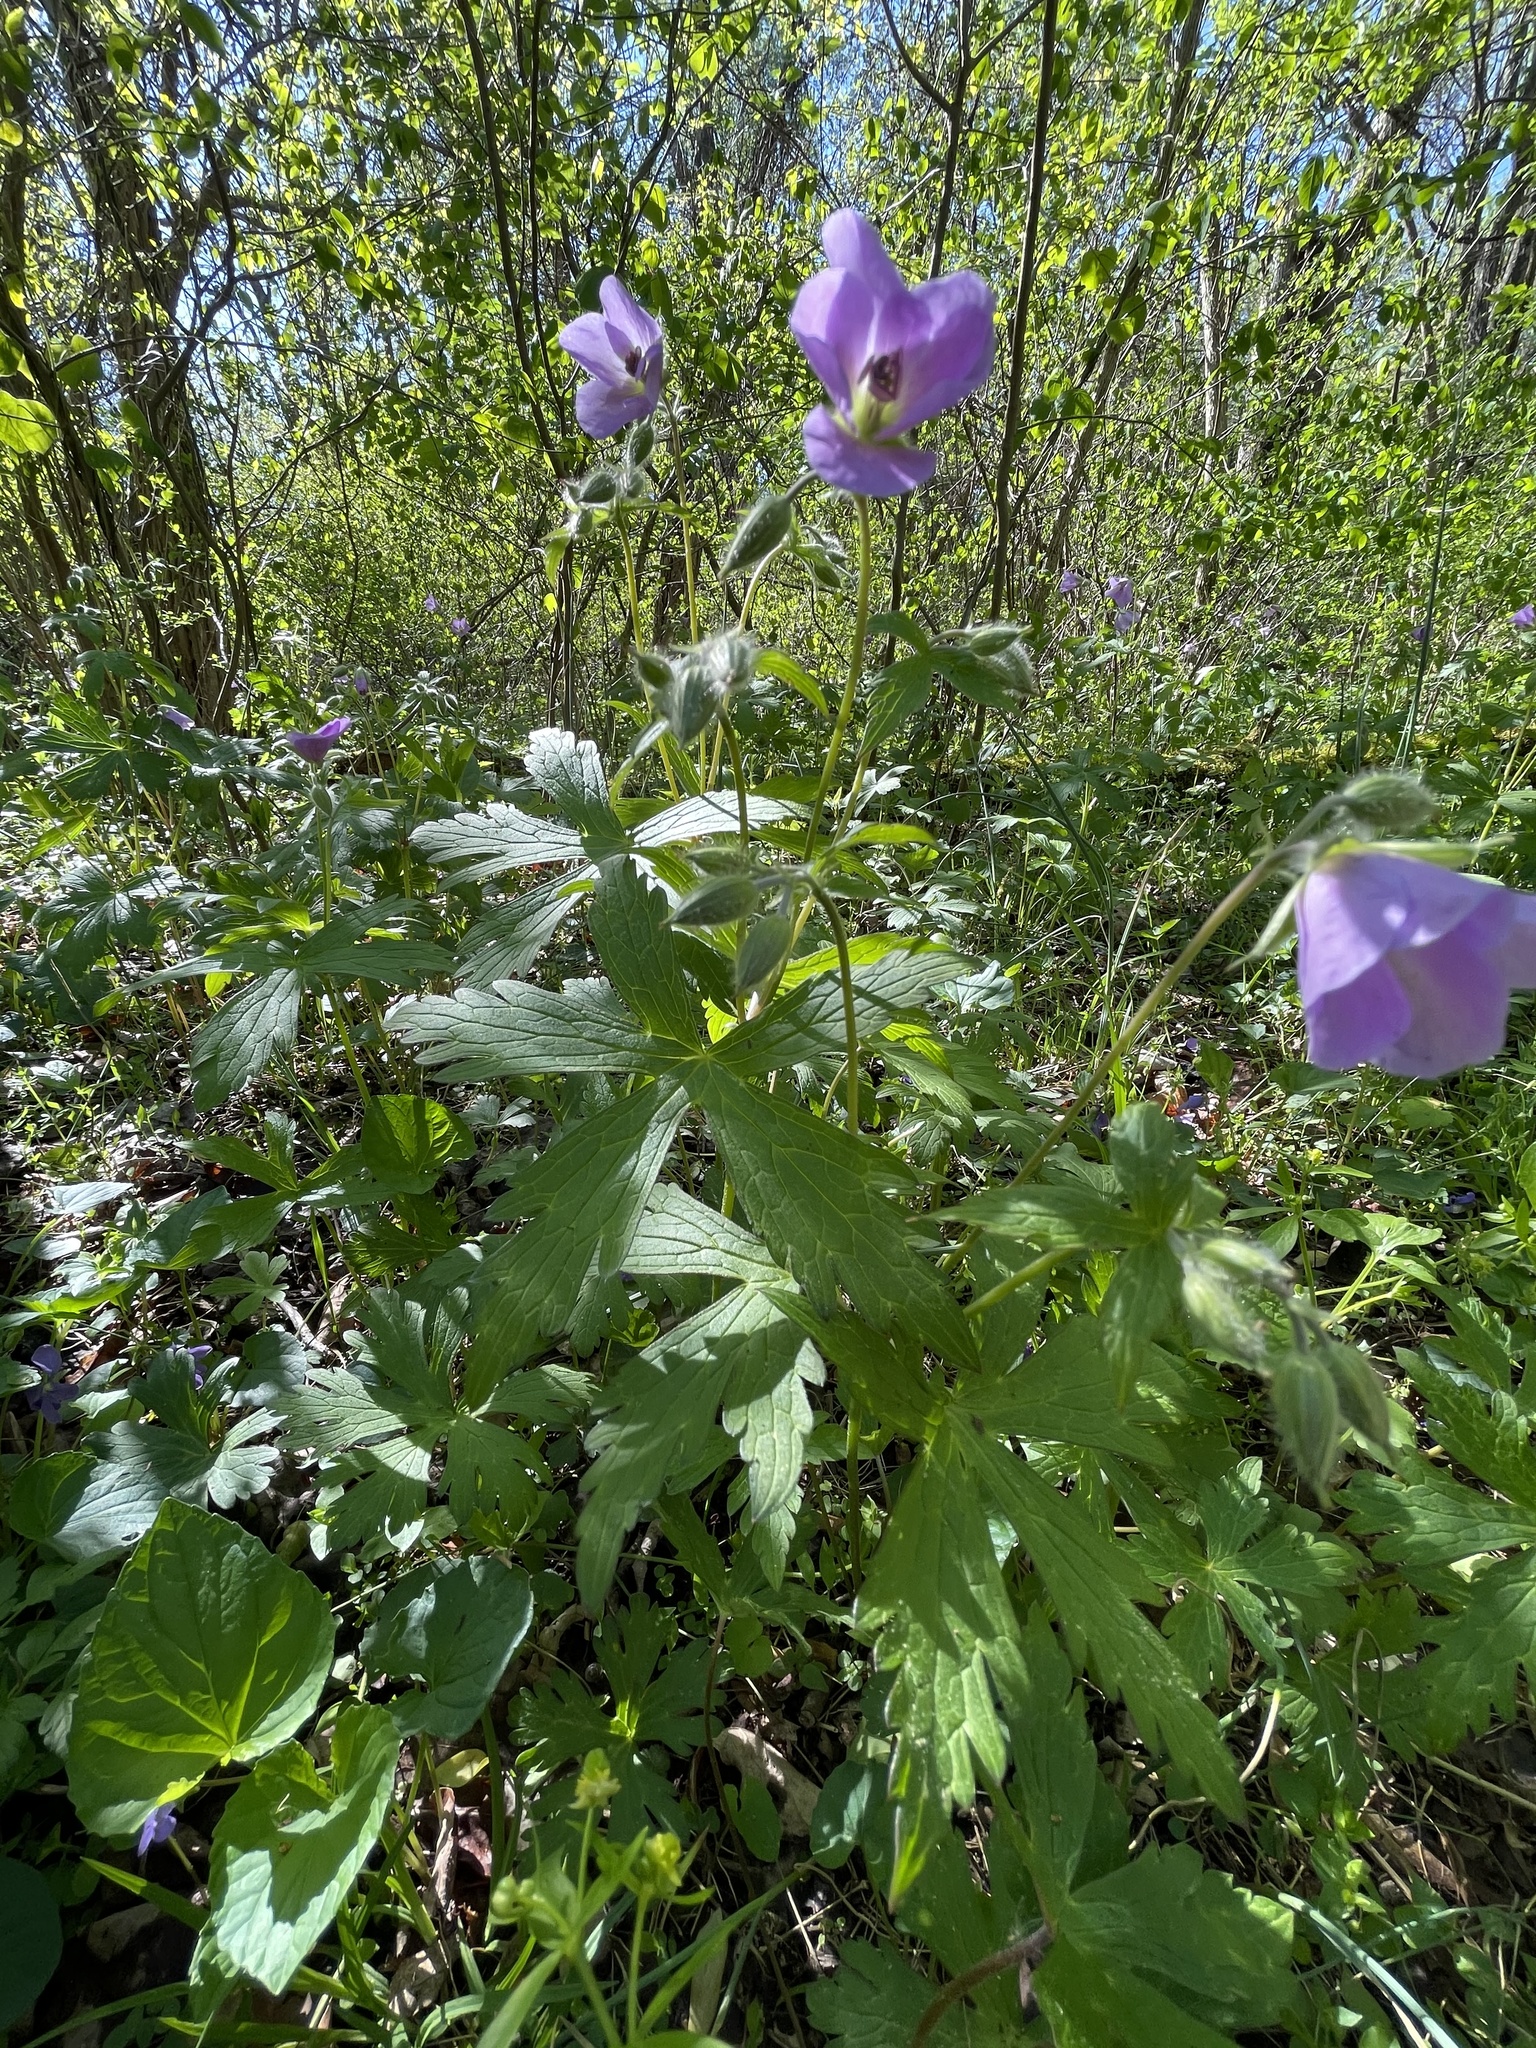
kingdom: Plantae
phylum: Tracheophyta
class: Magnoliopsida
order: Geraniales
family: Geraniaceae
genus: Geranium
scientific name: Geranium maculatum
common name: Spotted geranium
